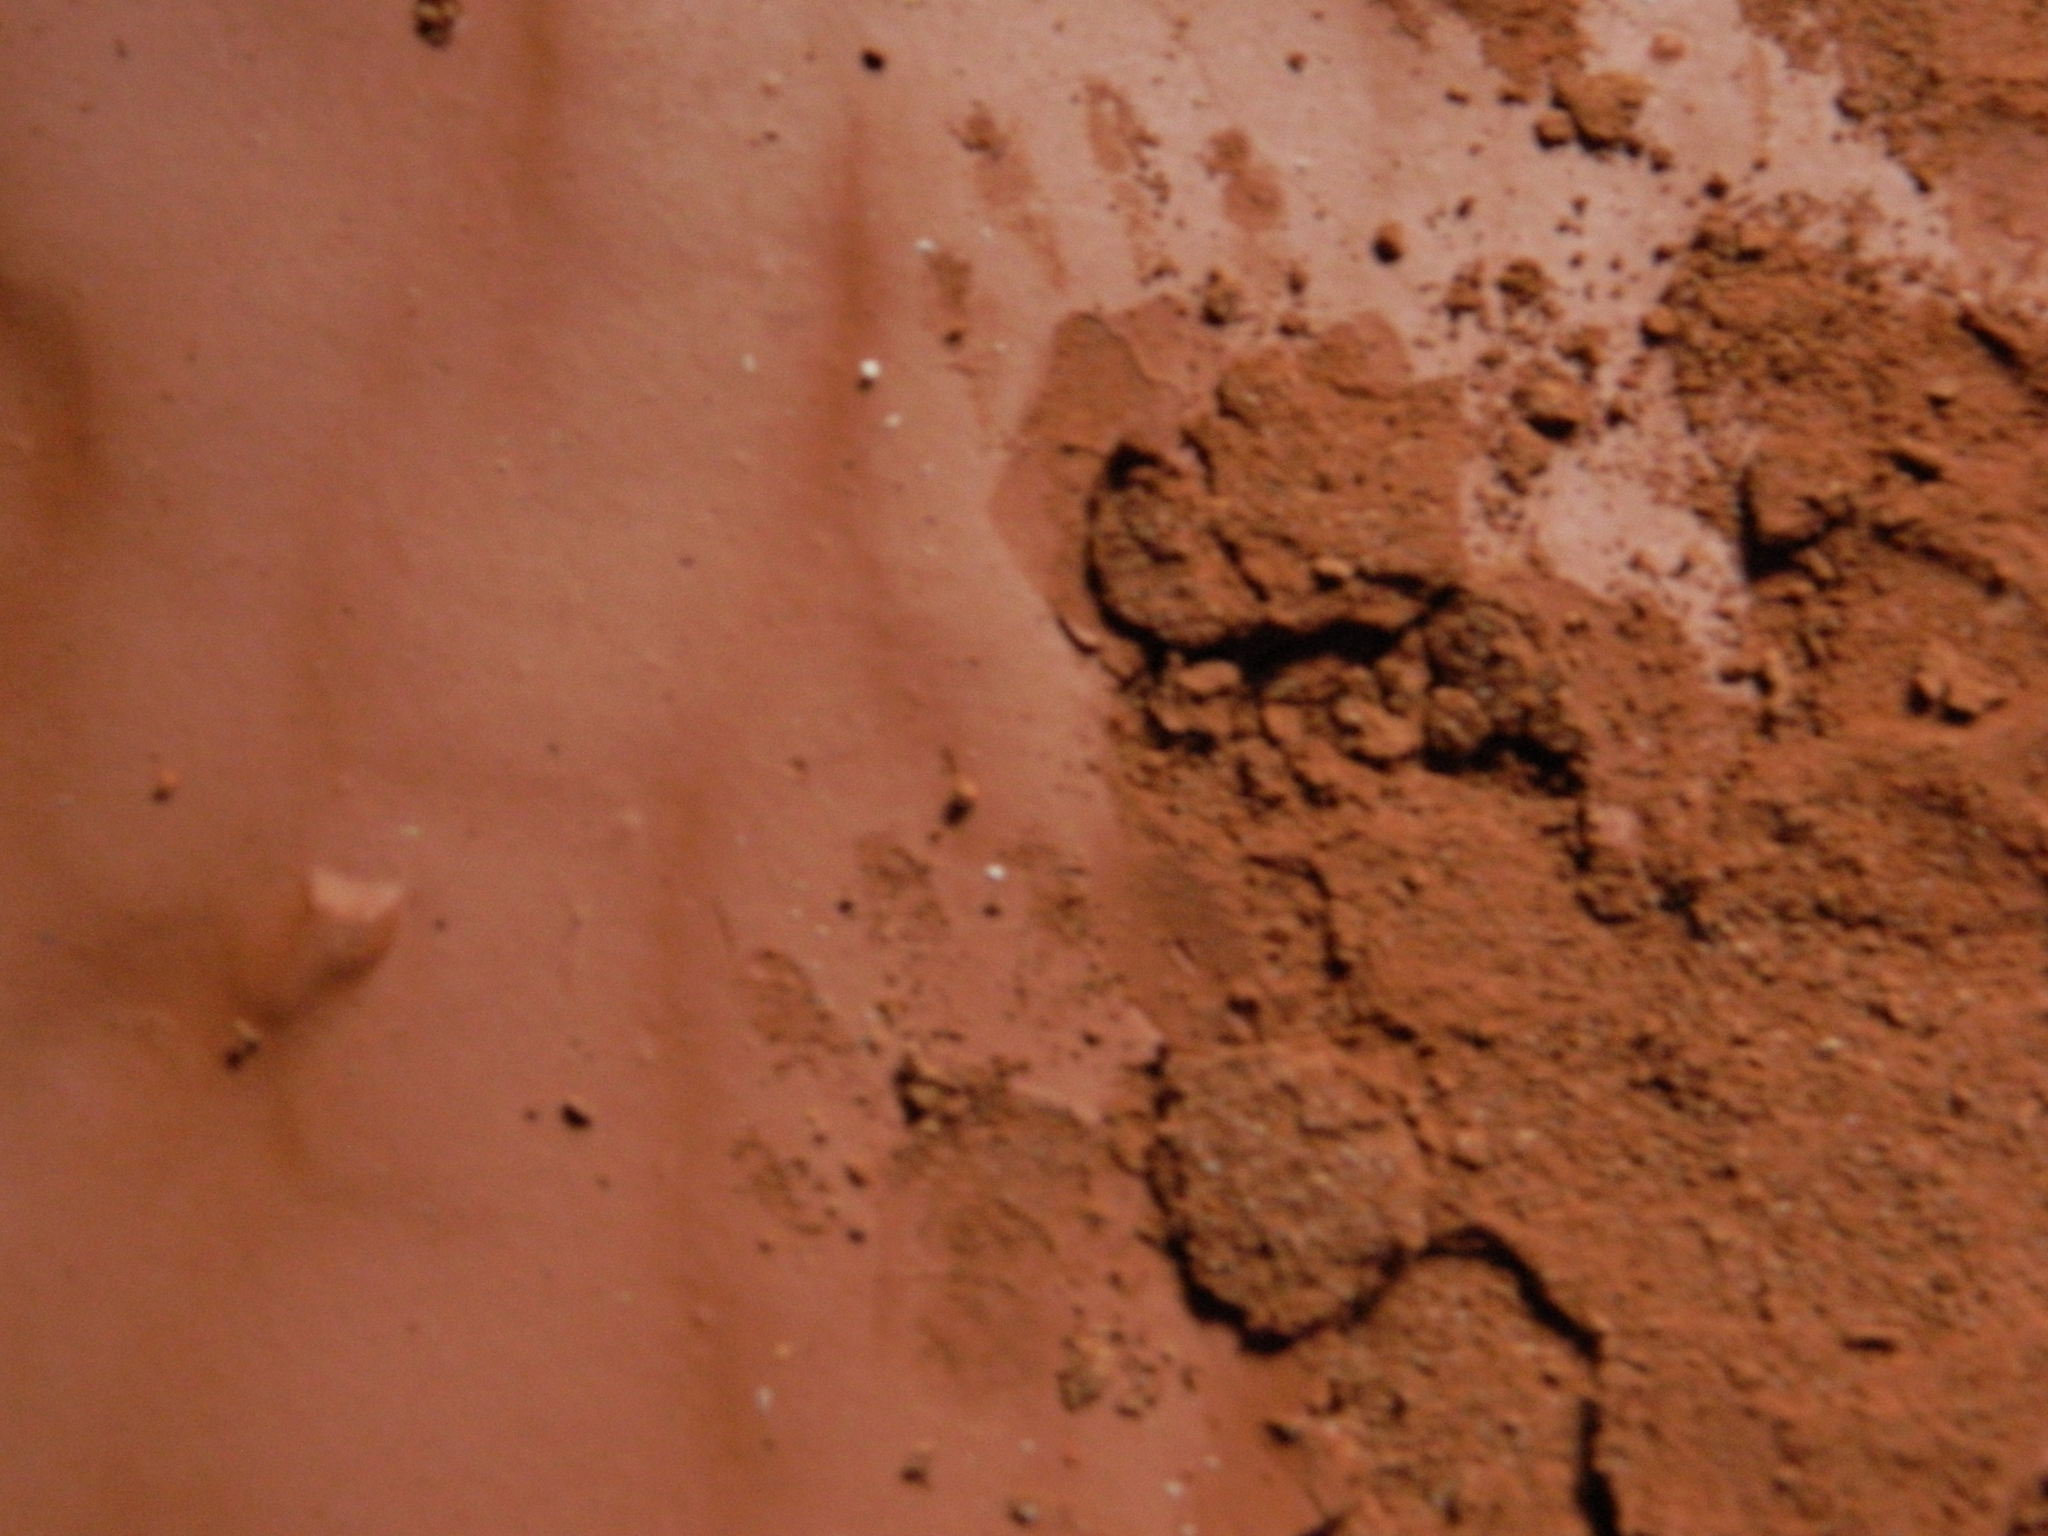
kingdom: Animalia
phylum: Chordata
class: Mammalia
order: Carnivora
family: Procyonidae
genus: Procyon
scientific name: Procyon lotor
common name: Raccoon
